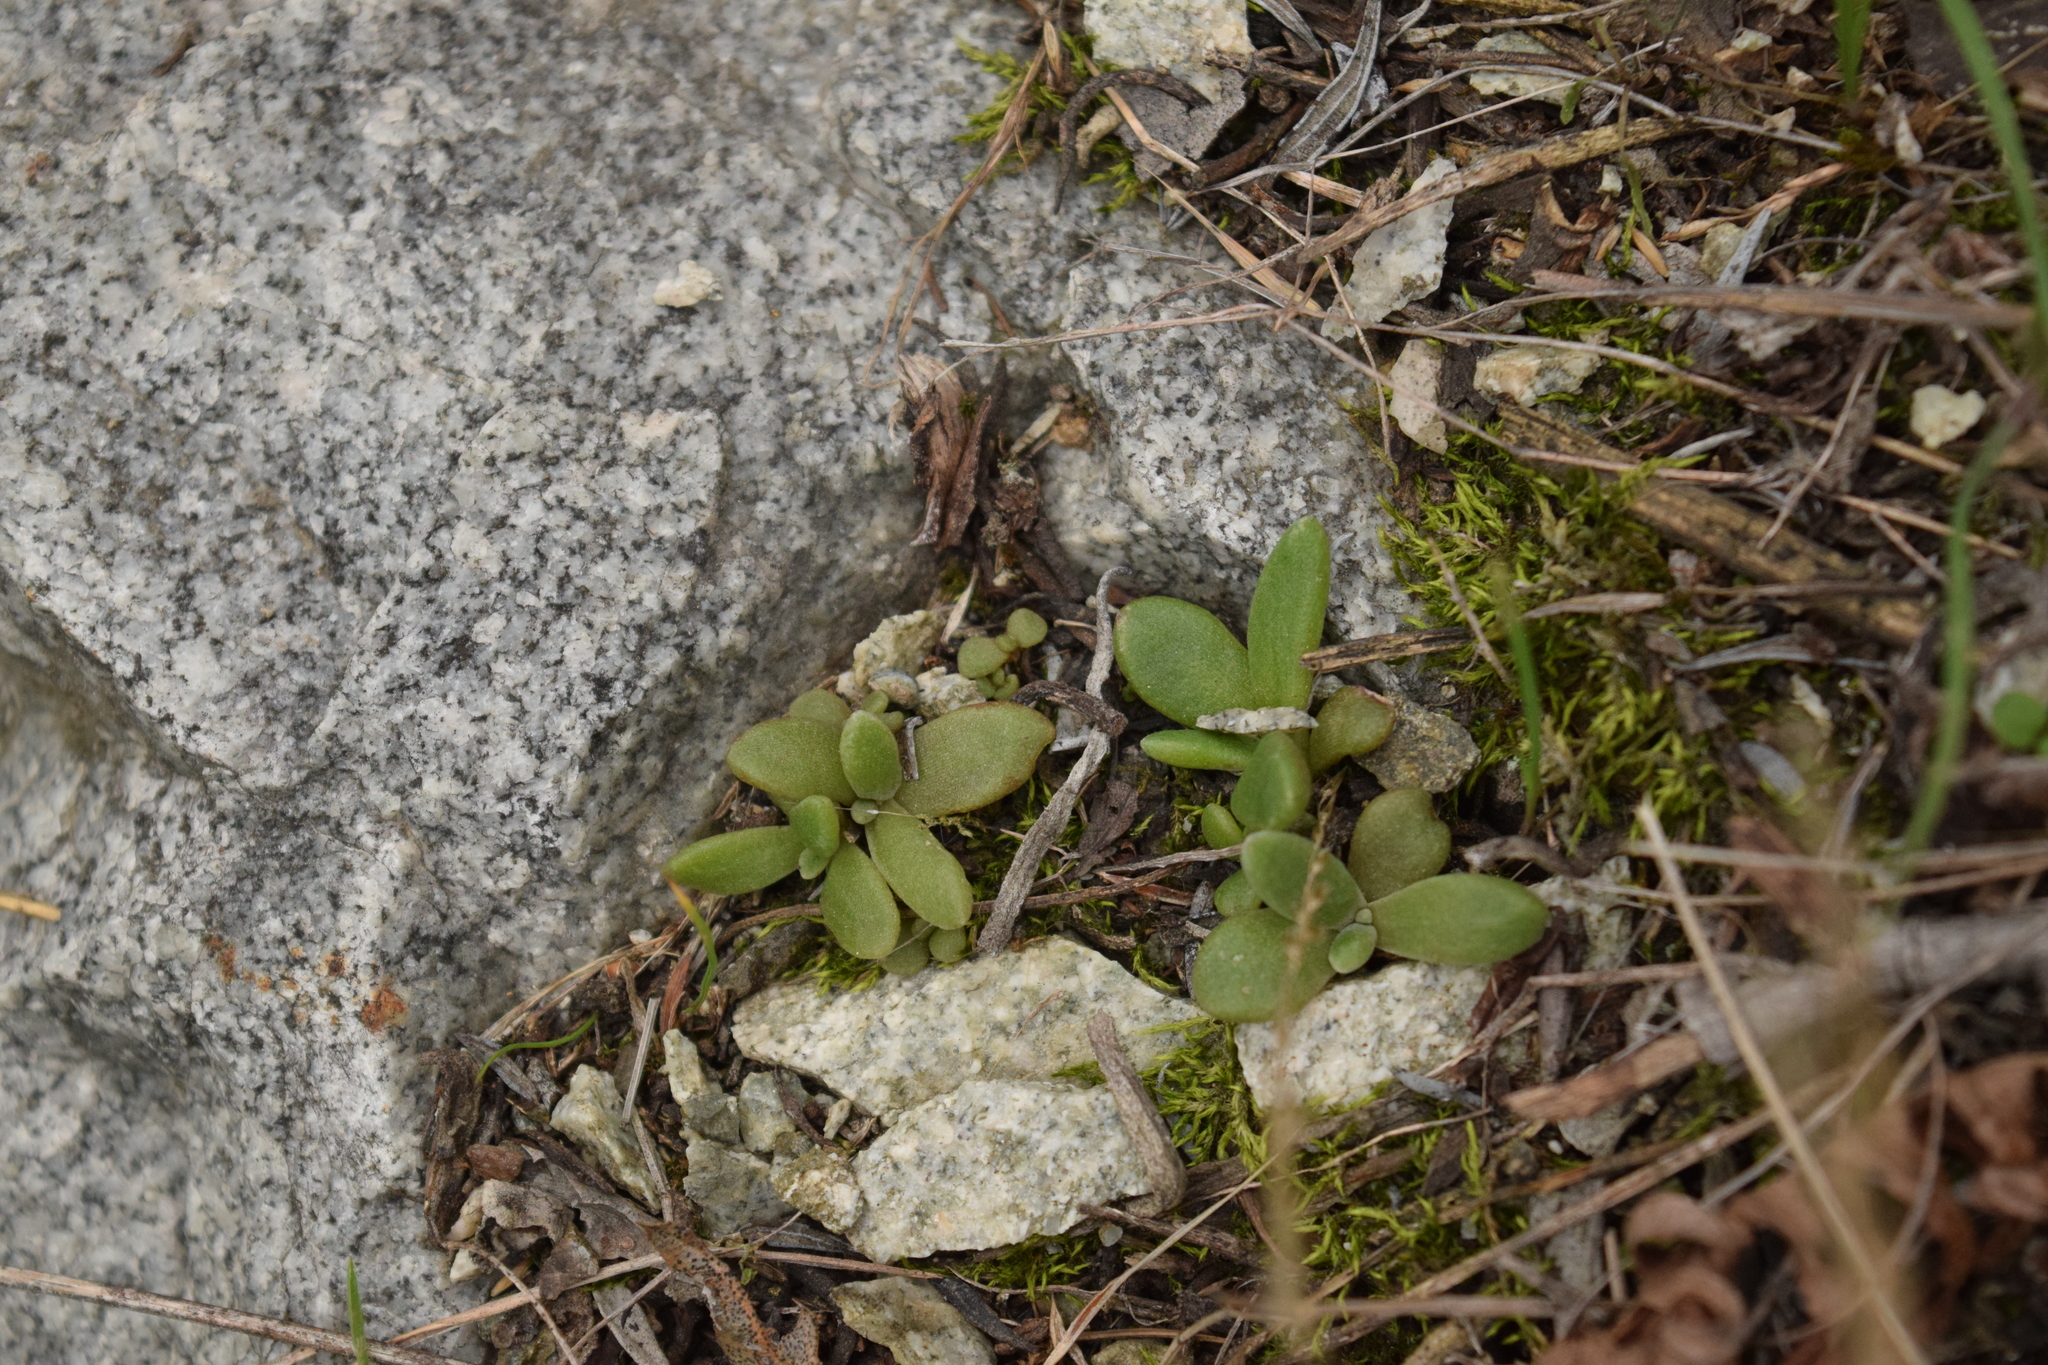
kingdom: Plantae
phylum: Tracheophyta
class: Magnoliopsida
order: Saxifragales
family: Crassulaceae
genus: Dudleya
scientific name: Dudleya densiflora
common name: San gabriel mountains dudleya
